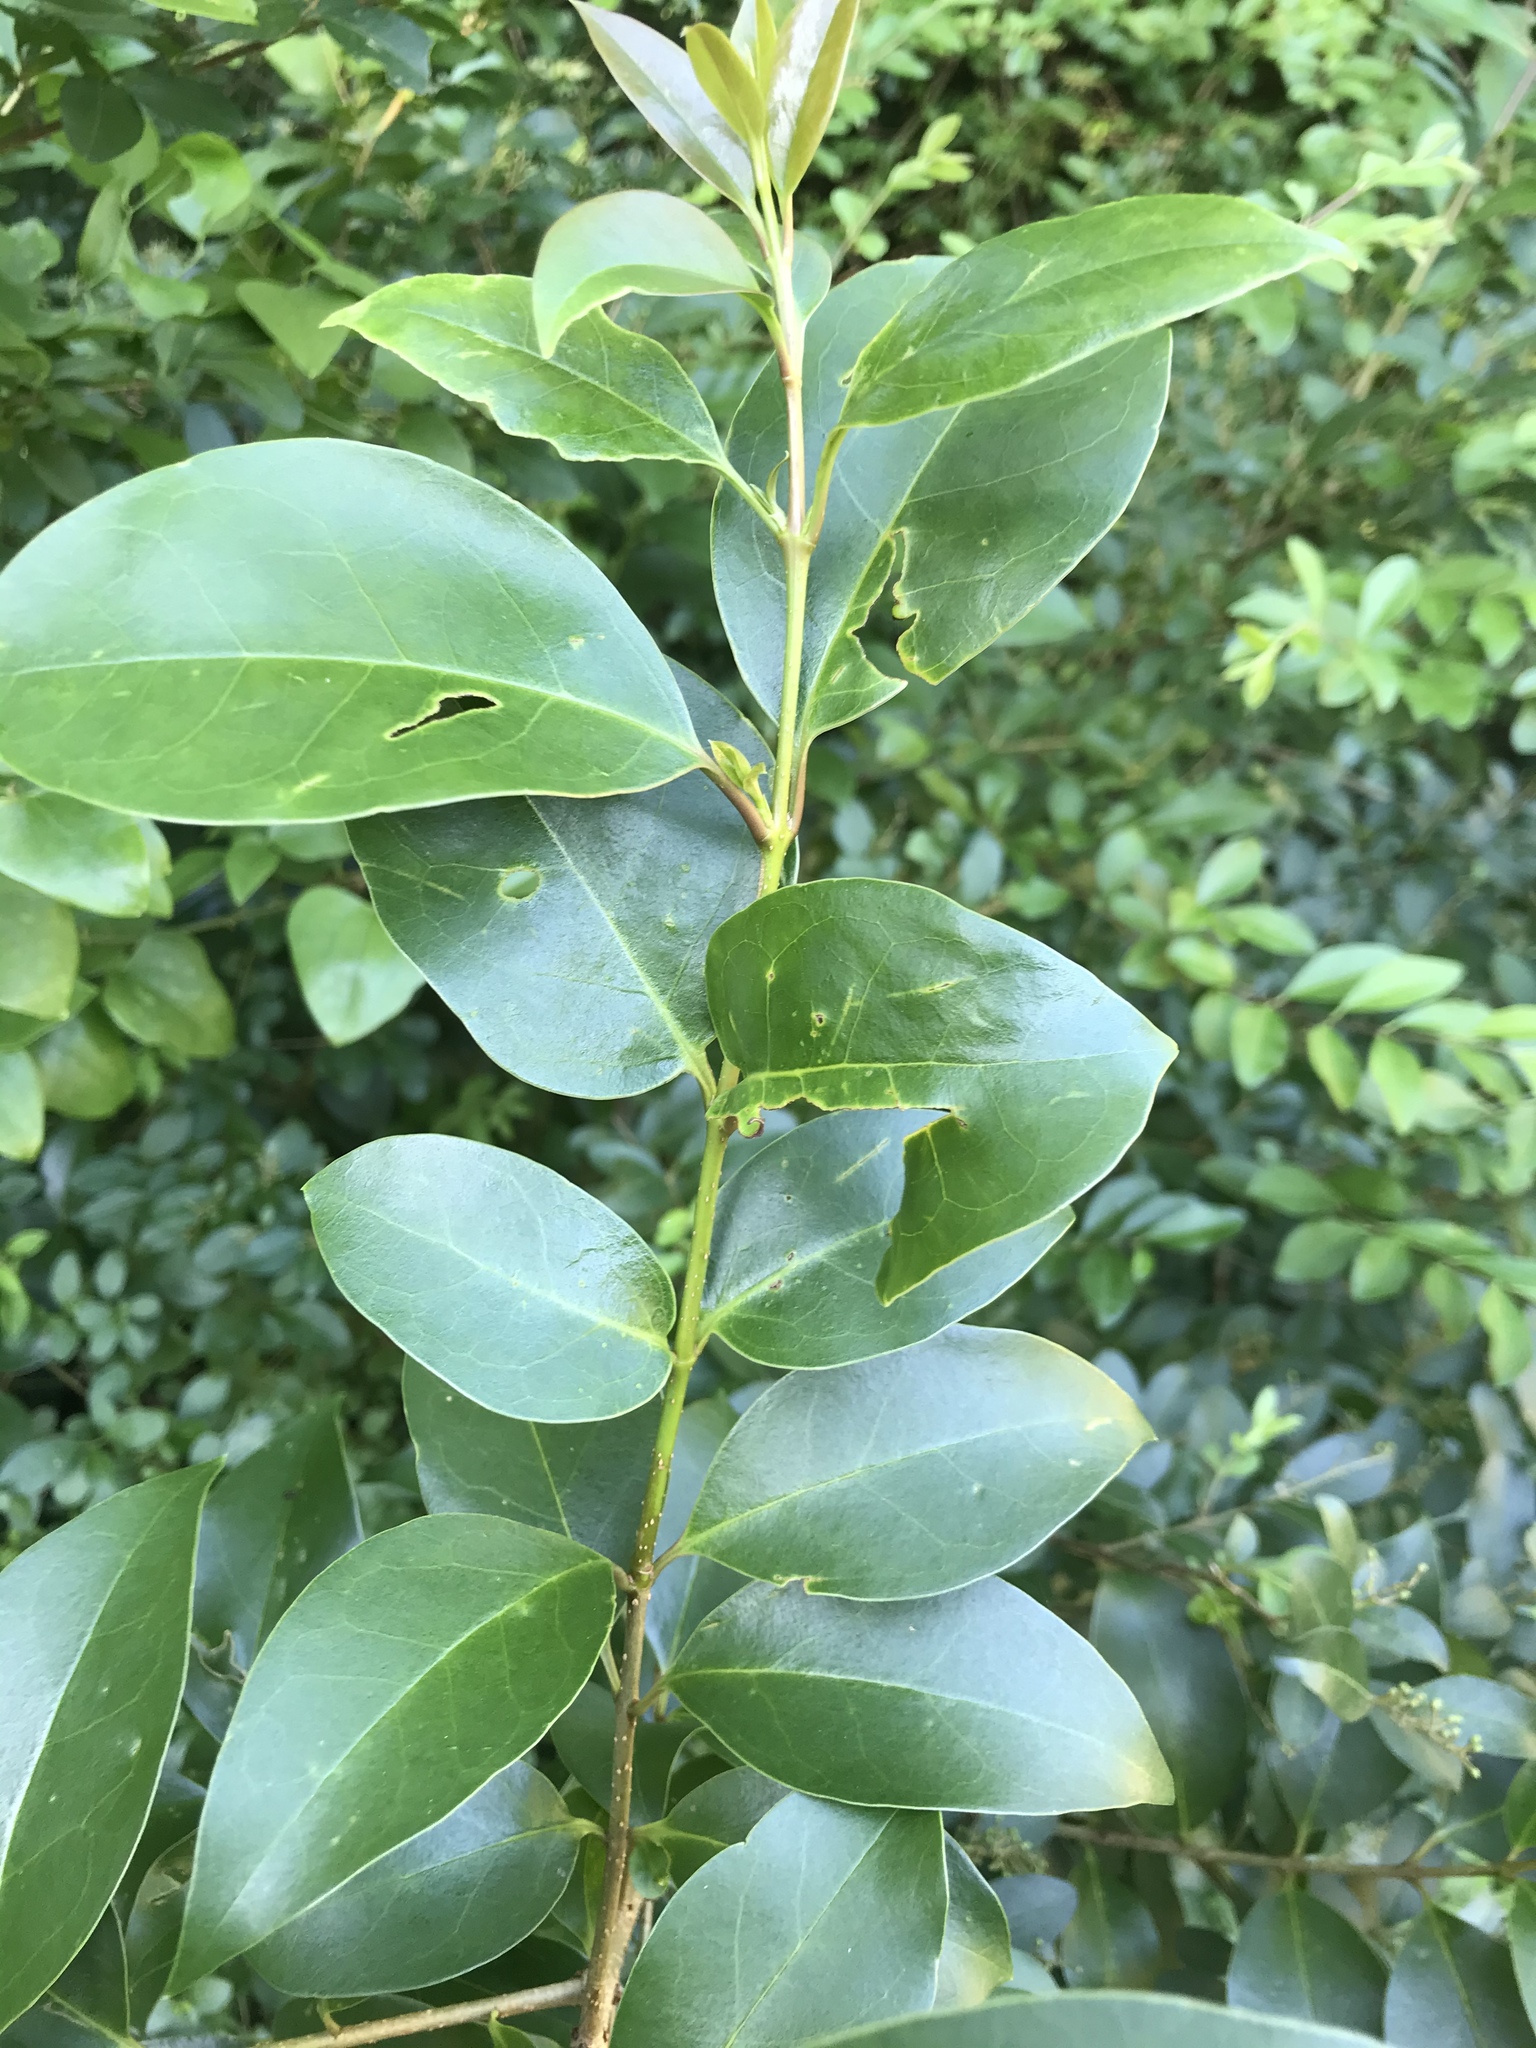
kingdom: Plantae
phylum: Tracheophyta
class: Magnoliopsida
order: Lamiales
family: Oleaceae
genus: Ligustrum
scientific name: Ligustrum lucidum
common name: Glossy privet
